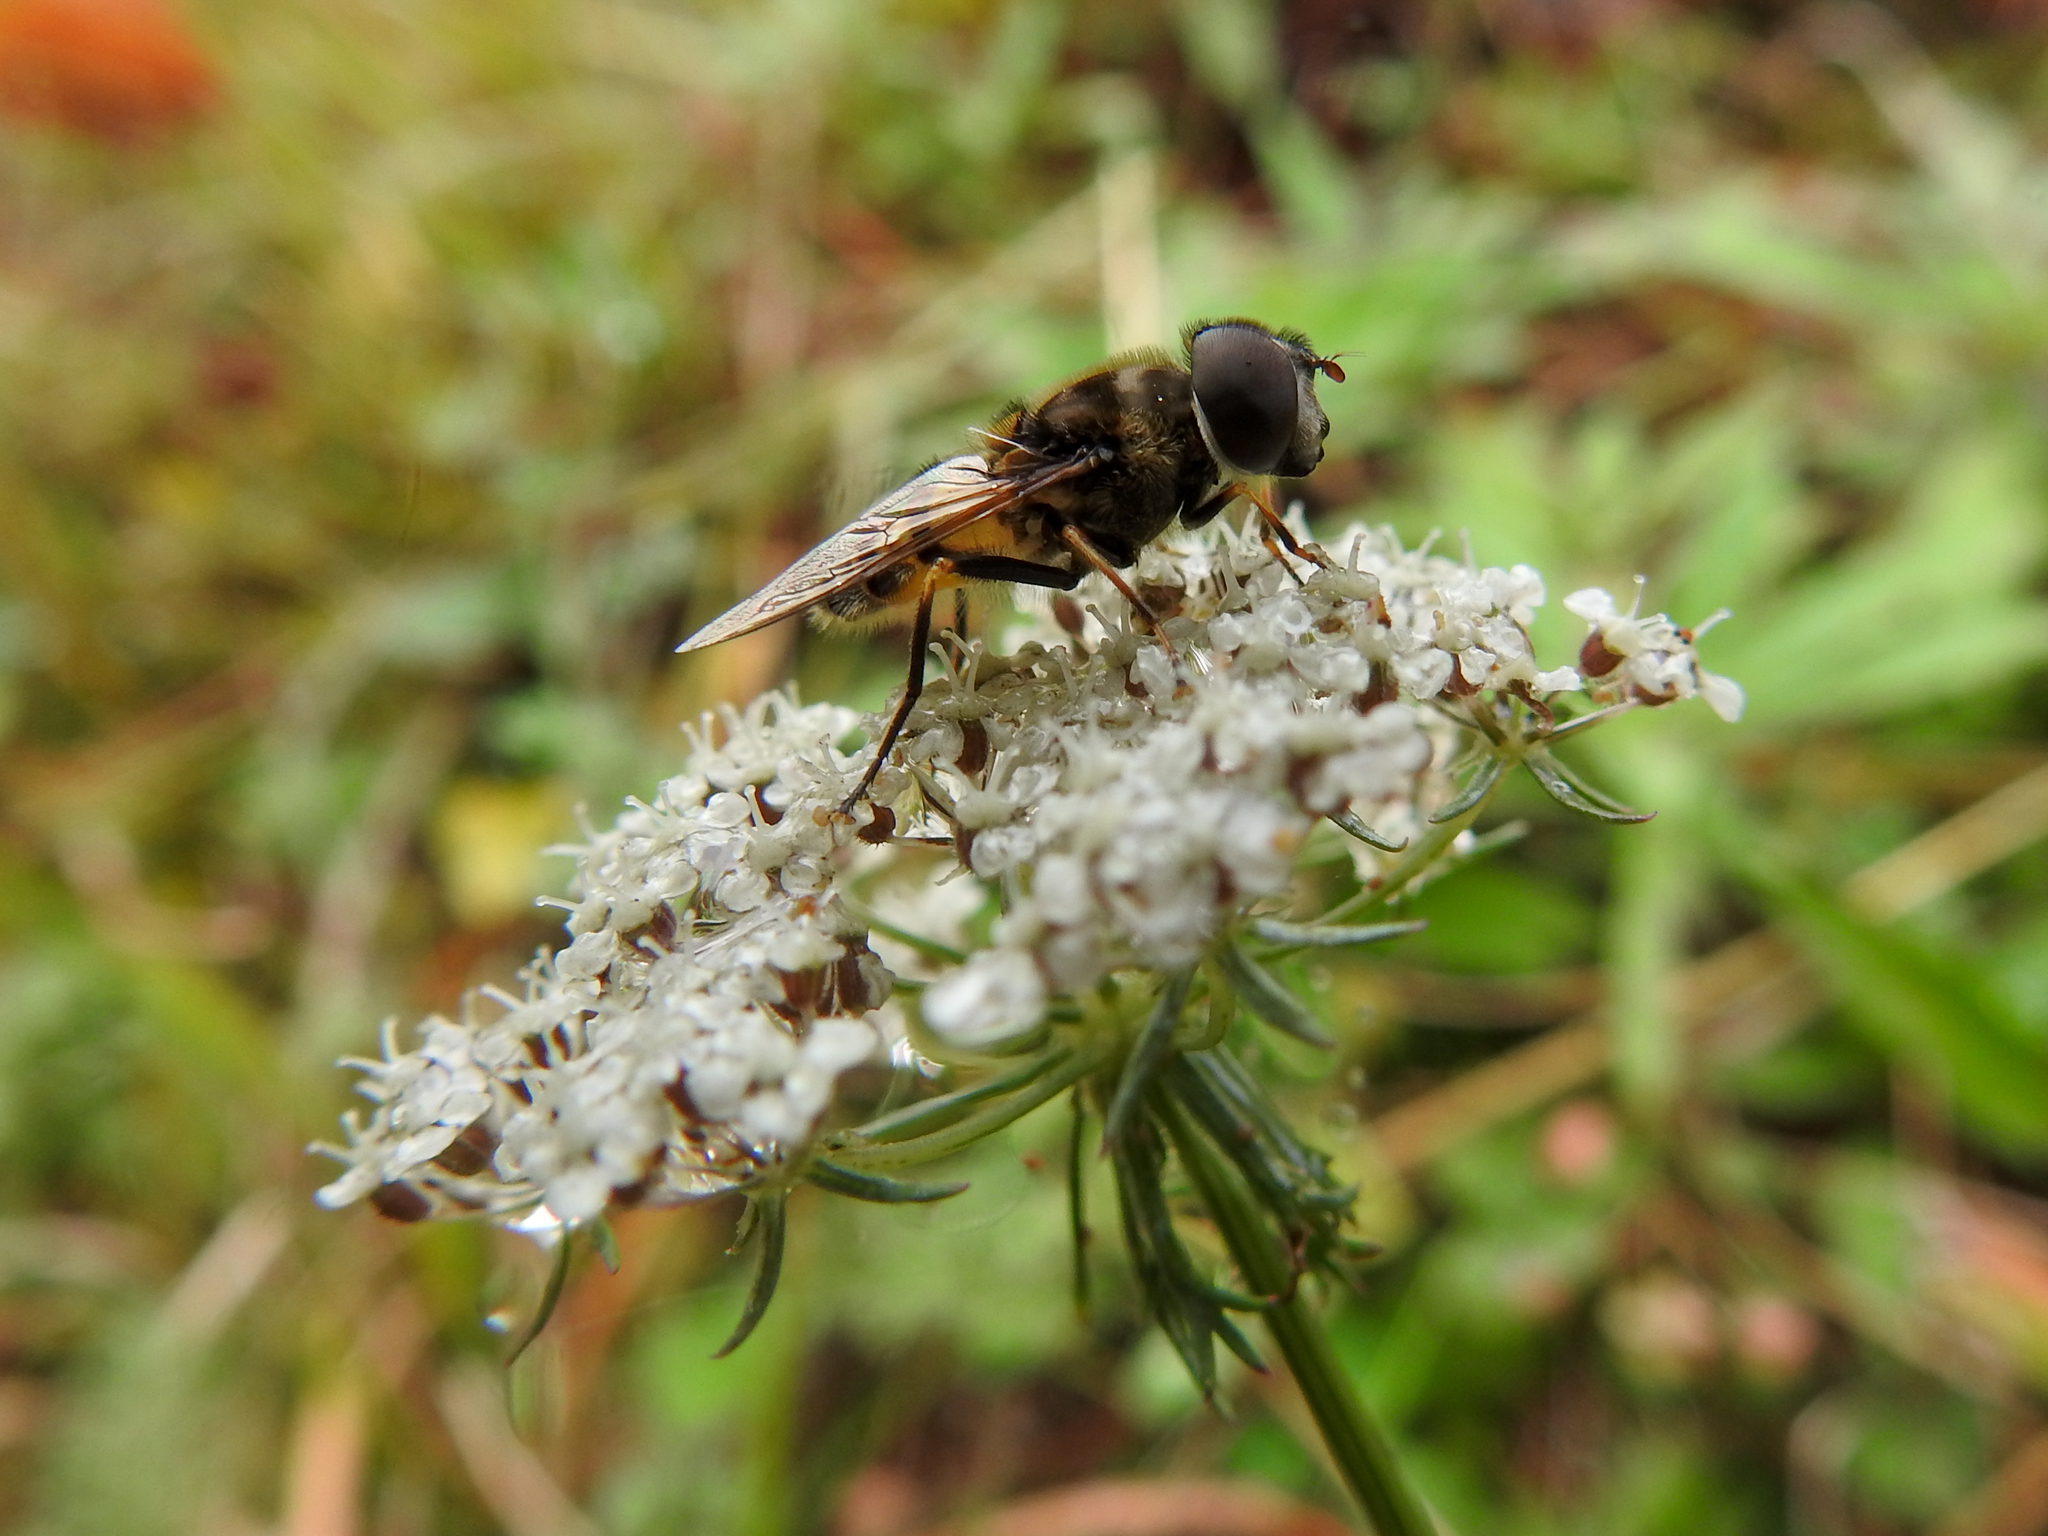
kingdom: Animalia
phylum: Arthropoda
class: Insecta
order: Diptera
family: Syrphidae
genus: Eristalis
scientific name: Eristalis transversa
